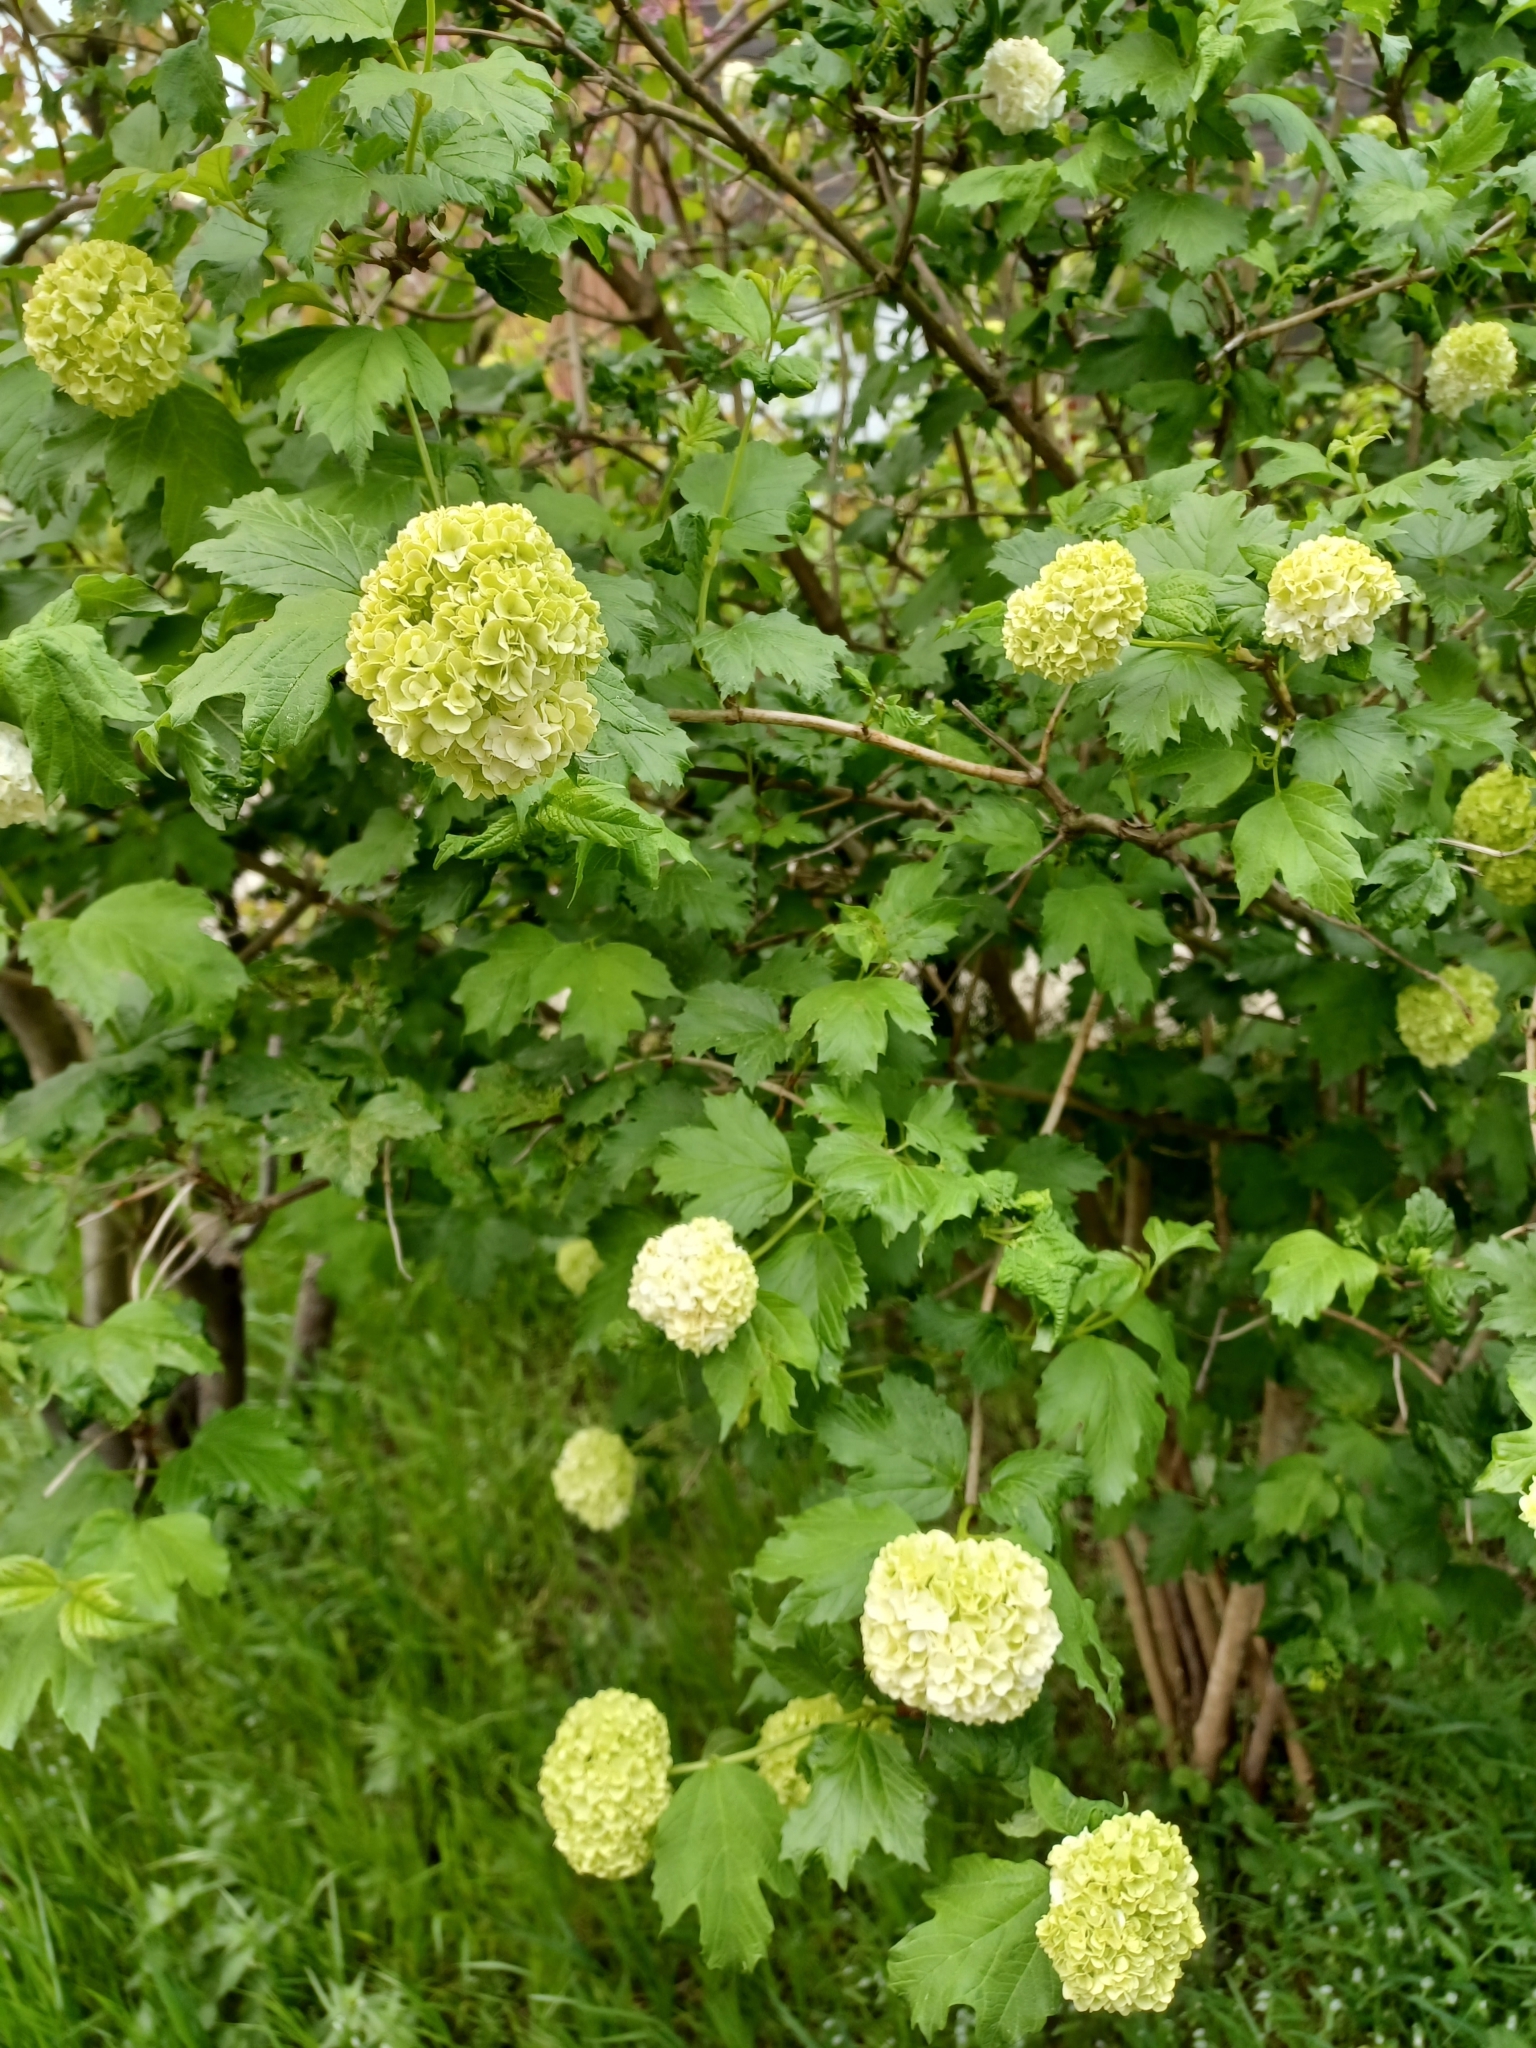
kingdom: Plantae
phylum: Tracheophyta
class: Magnoliopsida
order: Dipsacales
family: Viburnaceae
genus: Viburnum
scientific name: Viburnum opulus
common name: Guelder-rose
